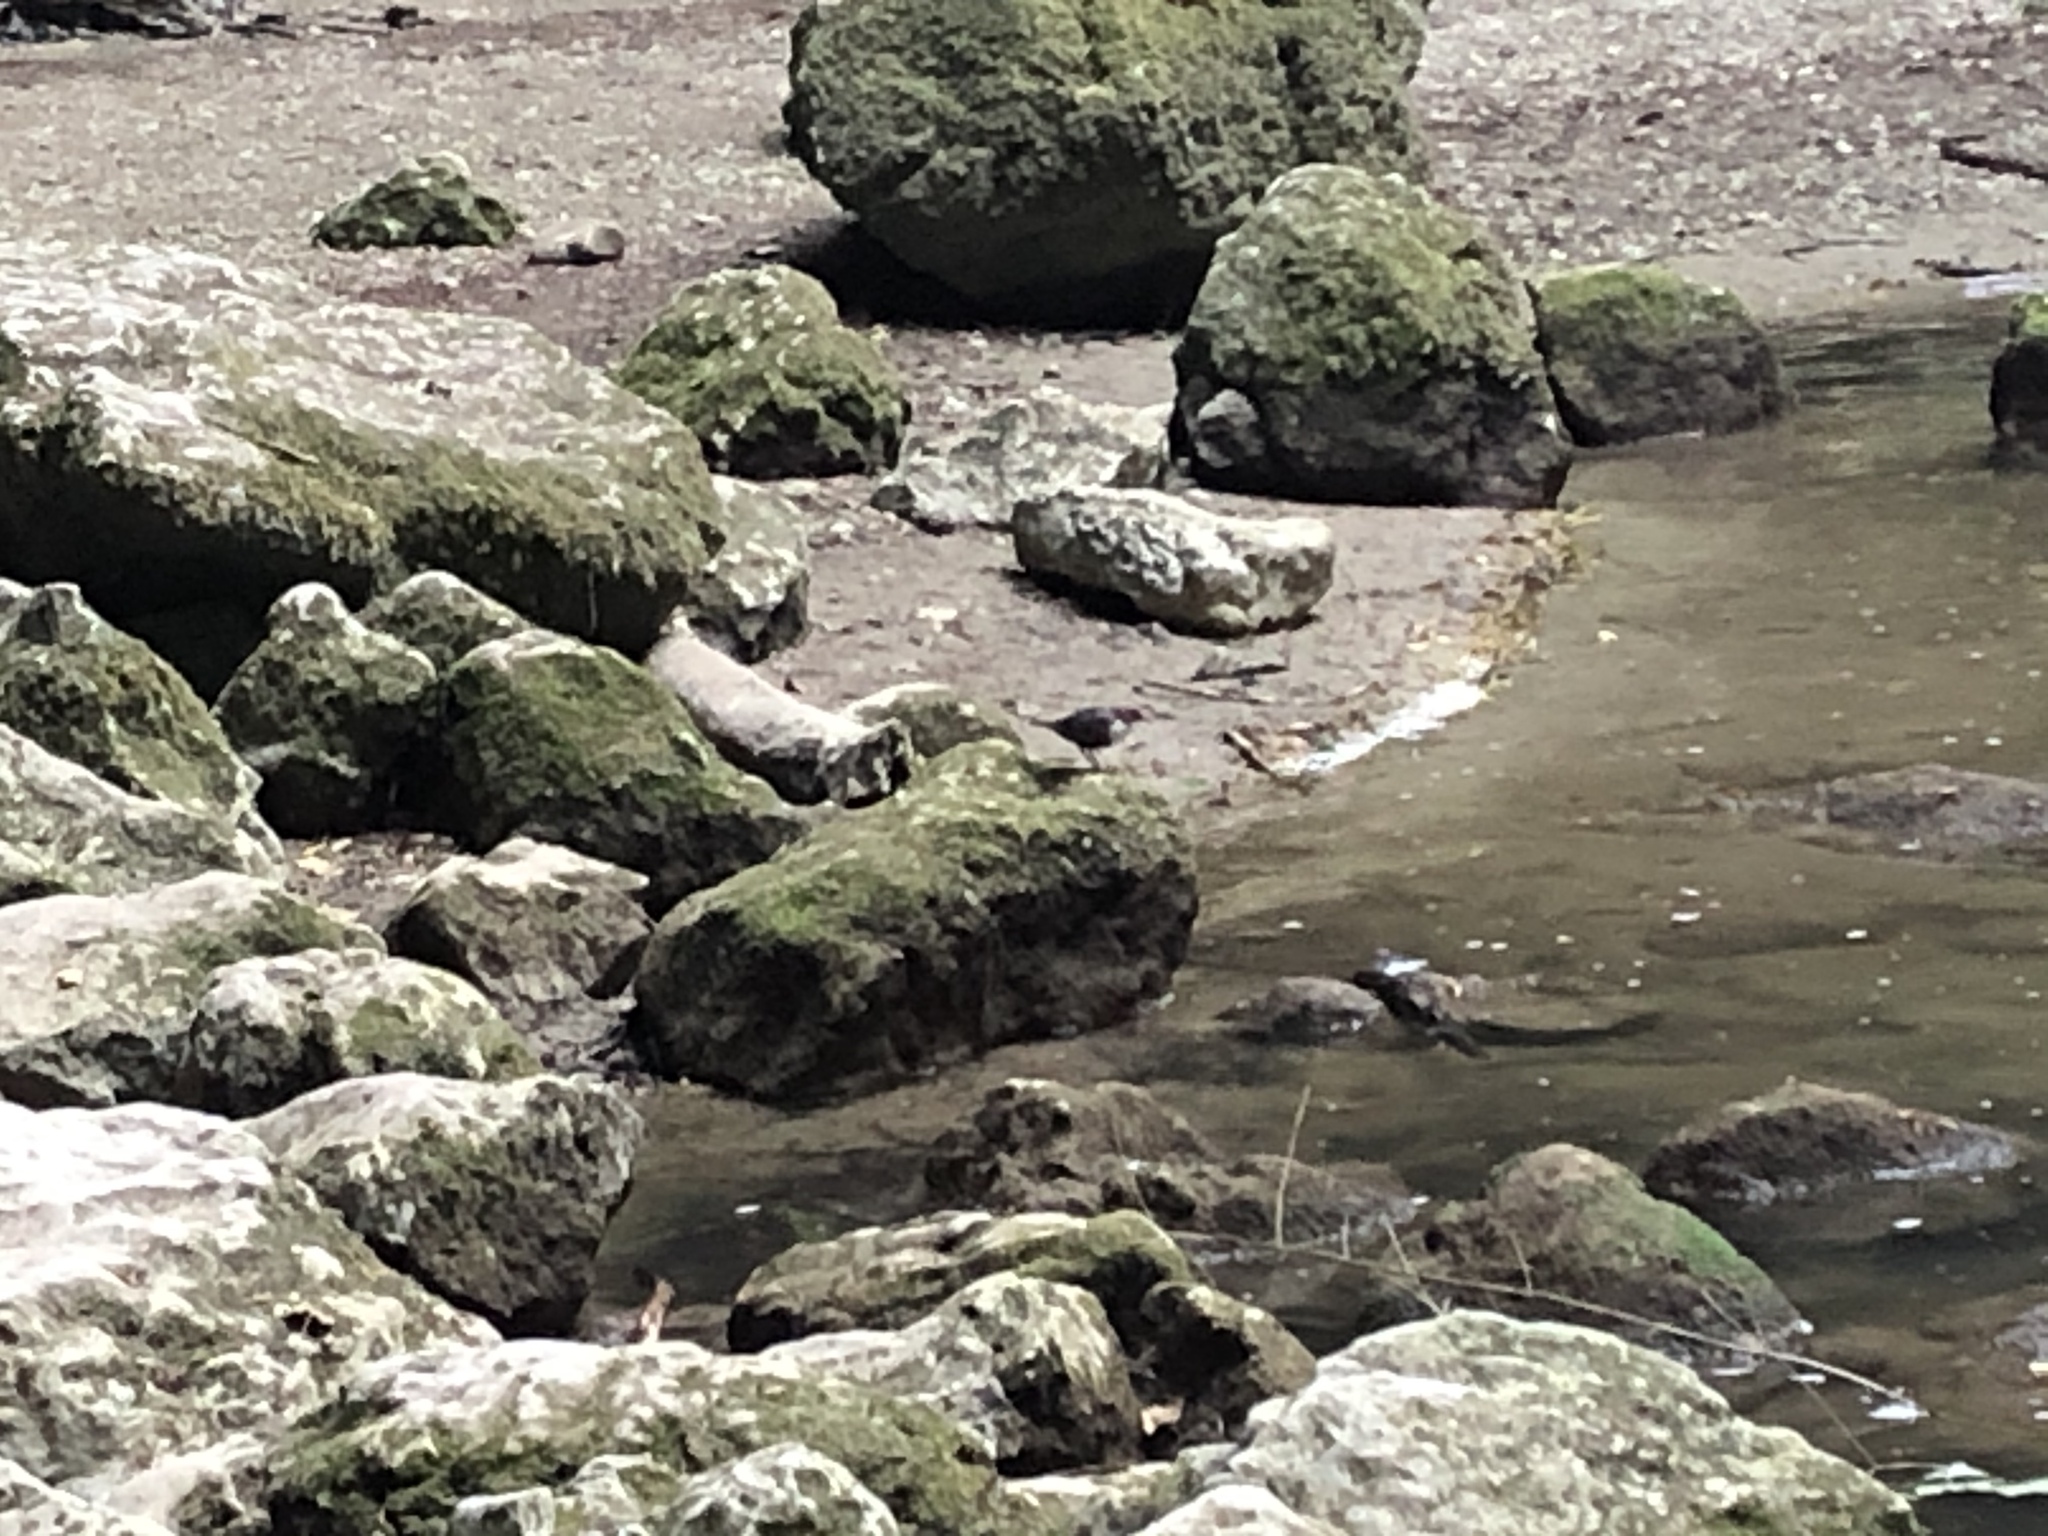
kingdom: Animalia
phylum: Chordata
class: Aves
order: Passeriformes
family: Cinclidae
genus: Cinclus
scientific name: Cinclus cinclus
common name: White-throated dipper
